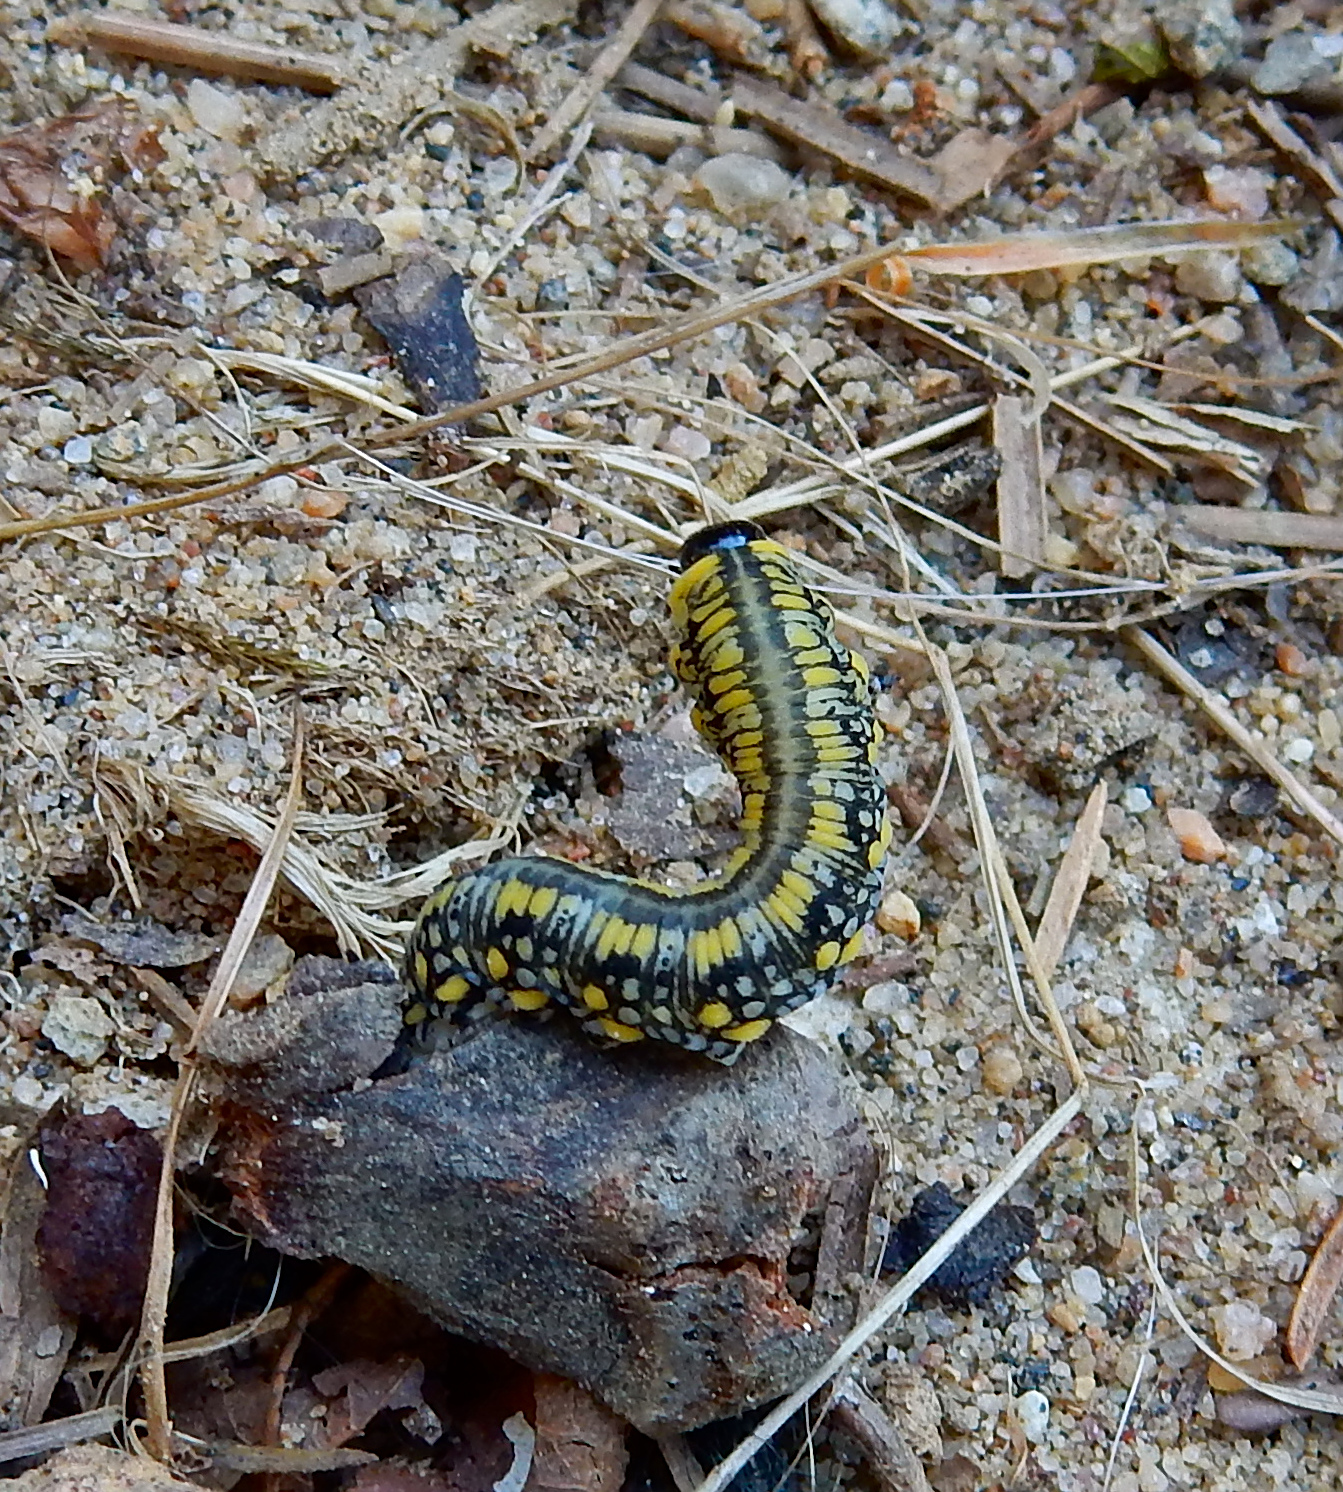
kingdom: Animalia
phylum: Arthropoda
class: Insecta
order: Hymenoptera
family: Diprionidae
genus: Diprion
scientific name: Diprion similis
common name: Pine sawfly
